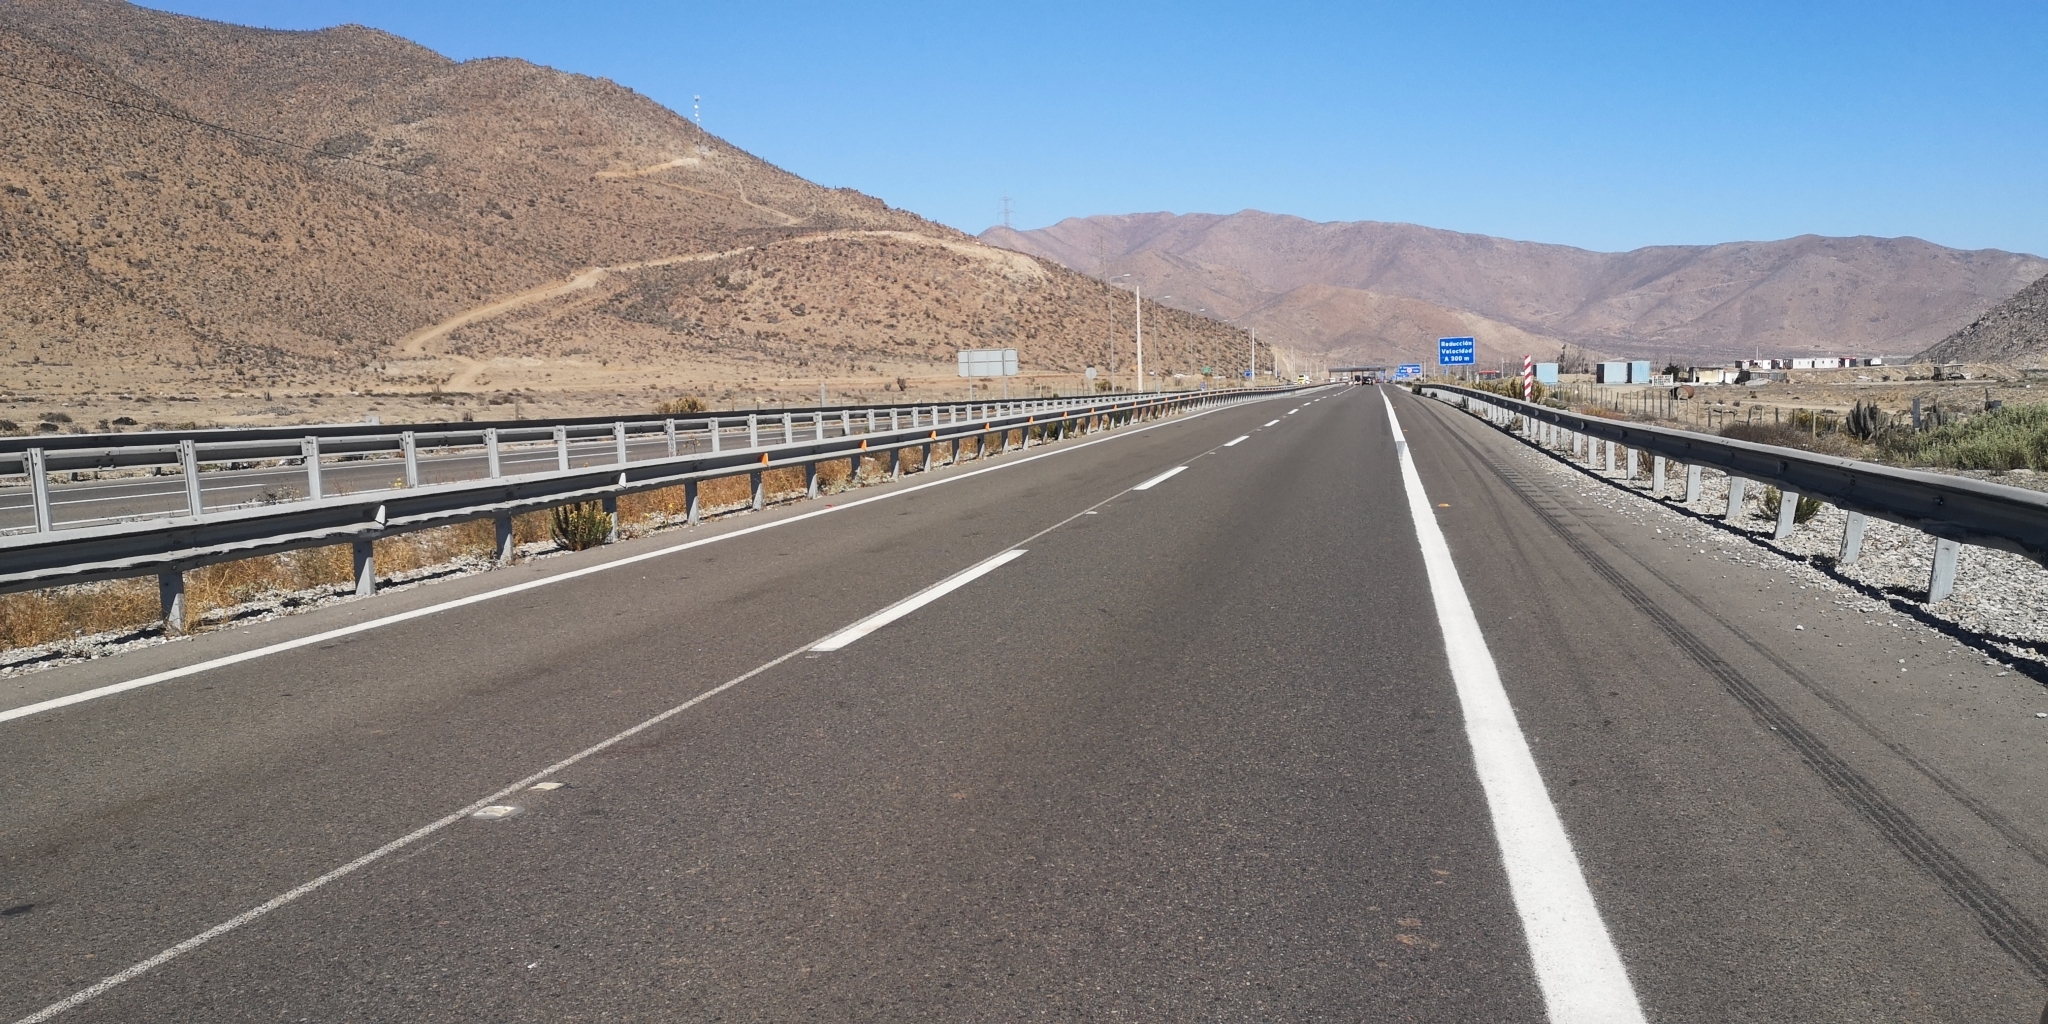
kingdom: Animalia
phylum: Chordata
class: Mammalia
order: Lagomorpha
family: Leporidae
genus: Lepus
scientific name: Lepus europaeus
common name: European hare
